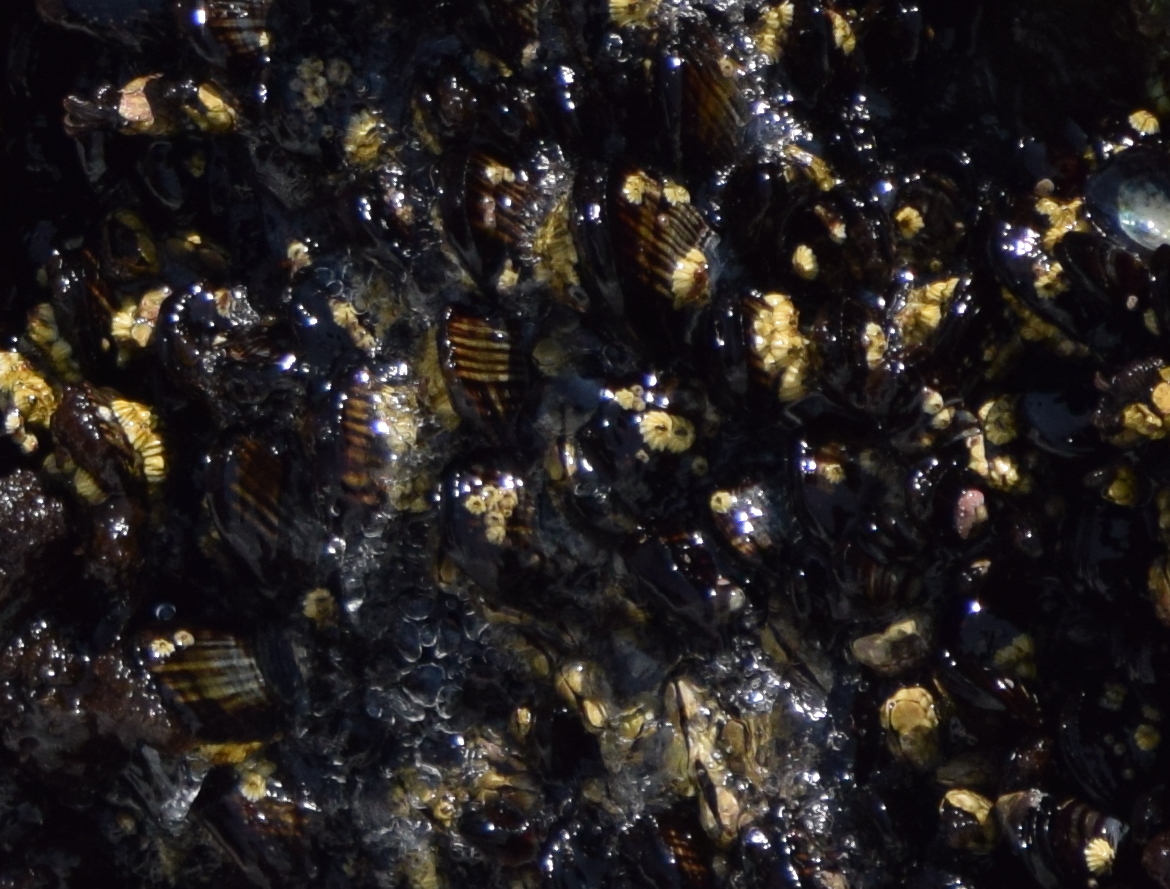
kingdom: Animalia
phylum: Mollusca
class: Bivalvia
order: Mytilida
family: Mytilidae
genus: Mytilus
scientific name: Mytilus californianus
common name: California mussel
